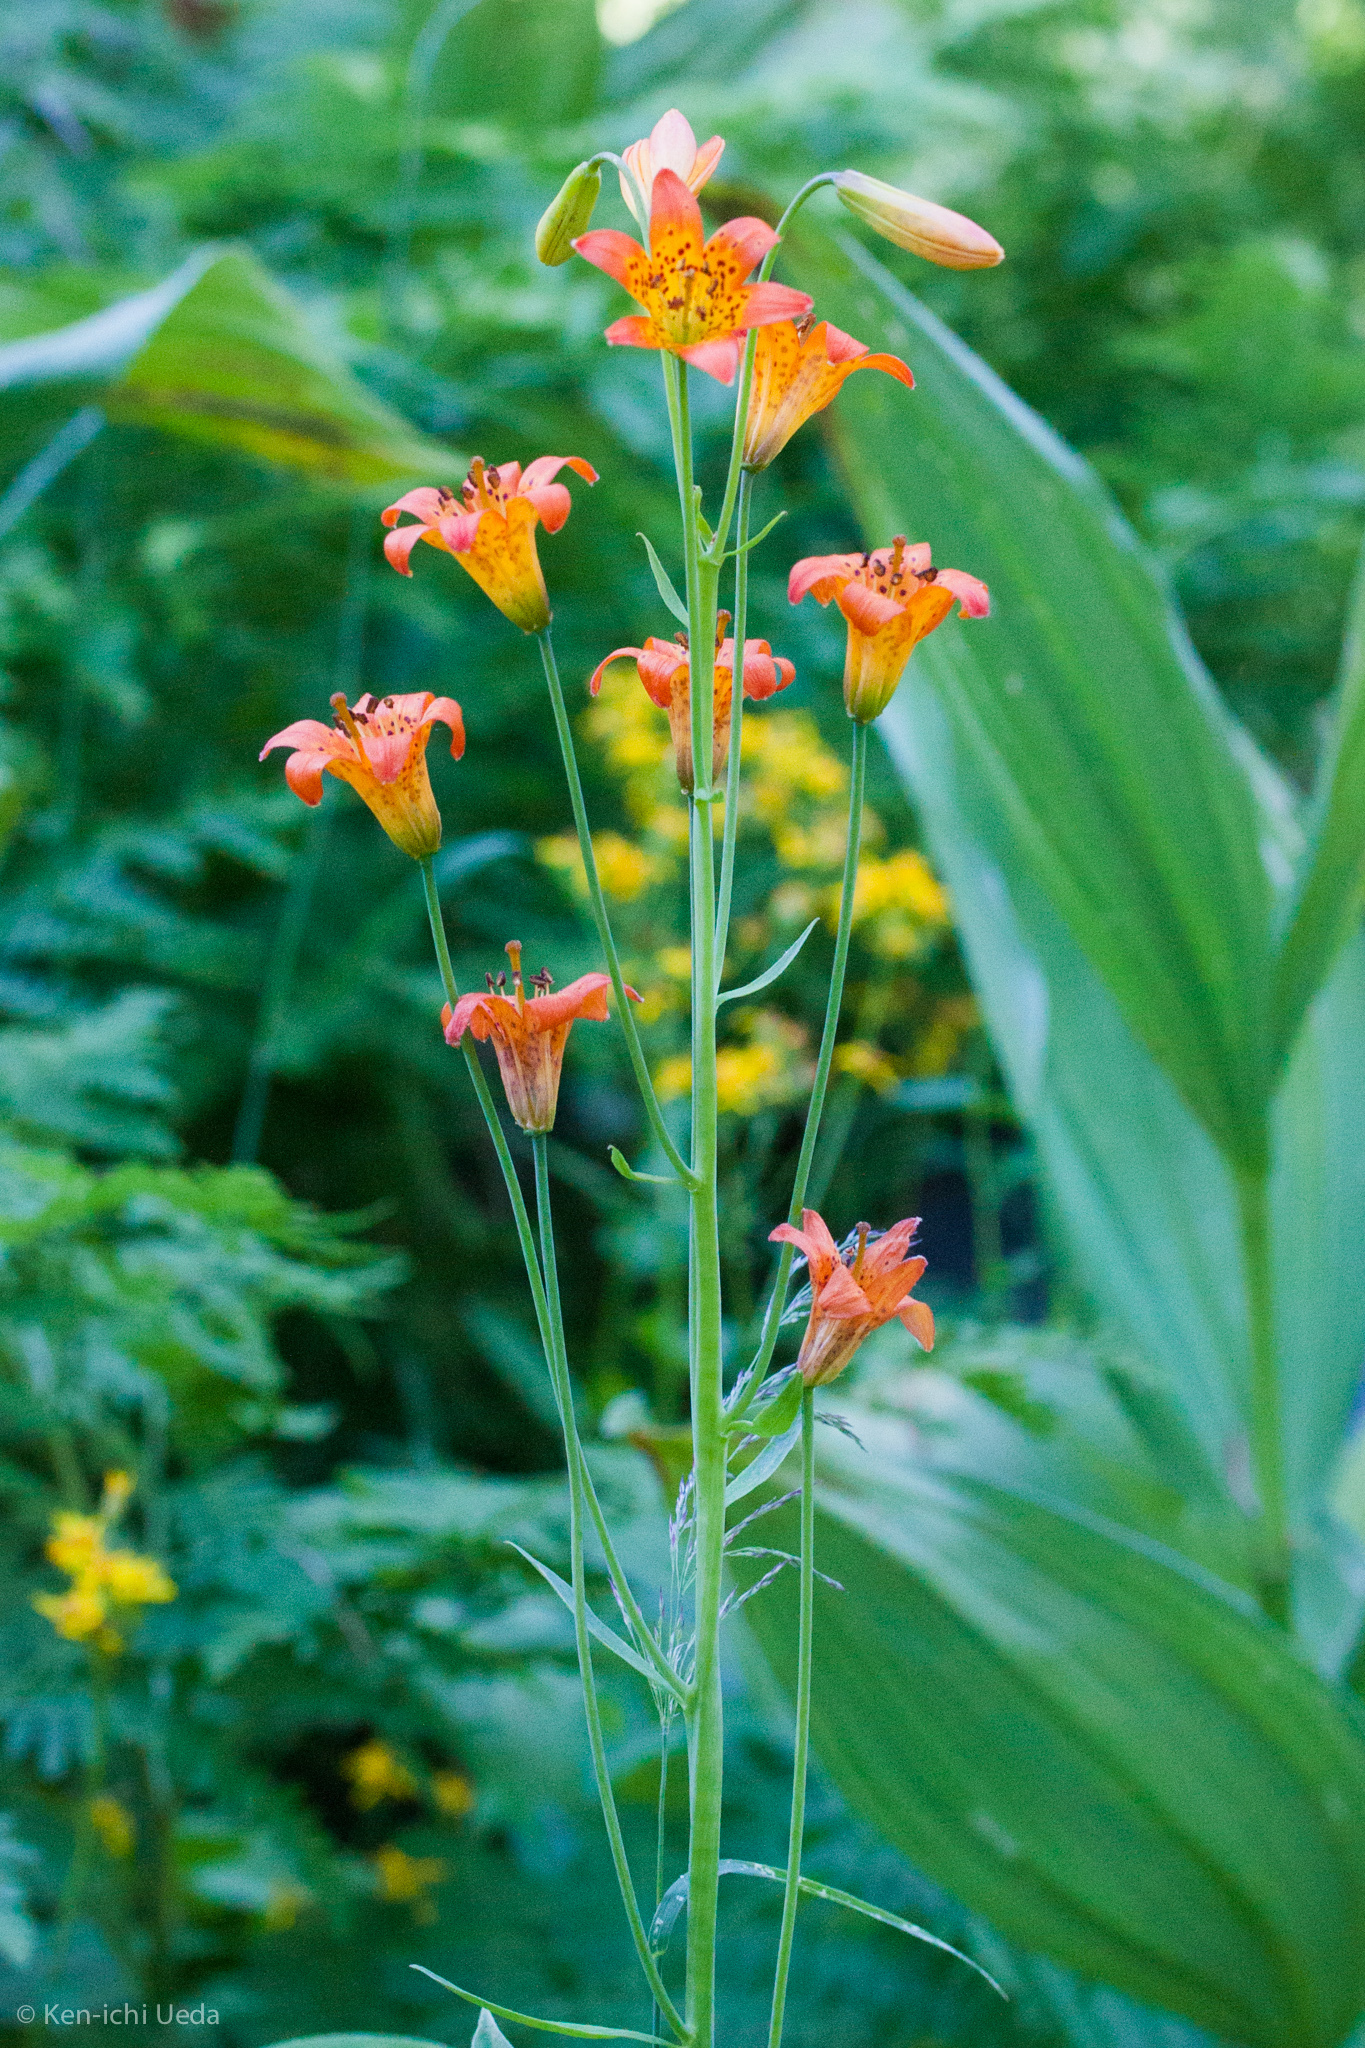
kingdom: Plantae
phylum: Tracheophyta
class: Liliopsida
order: Liliales
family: Liliaceae
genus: Lilium
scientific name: Lilium parvum
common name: Alpine lily
